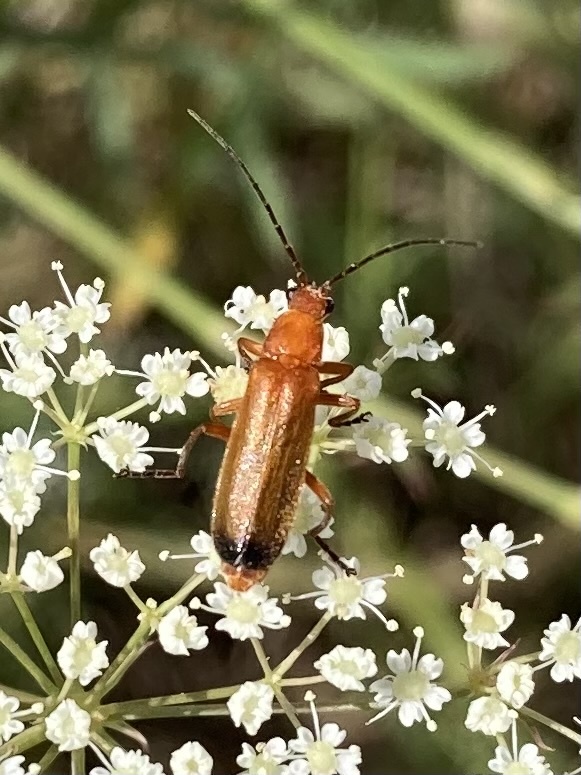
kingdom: Animalia
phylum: Arthropoda
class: Insecta
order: Coleoptera
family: Cantharidae
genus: Rhagonycha
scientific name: Rhagonycha fulva
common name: Common red soldier beetle
